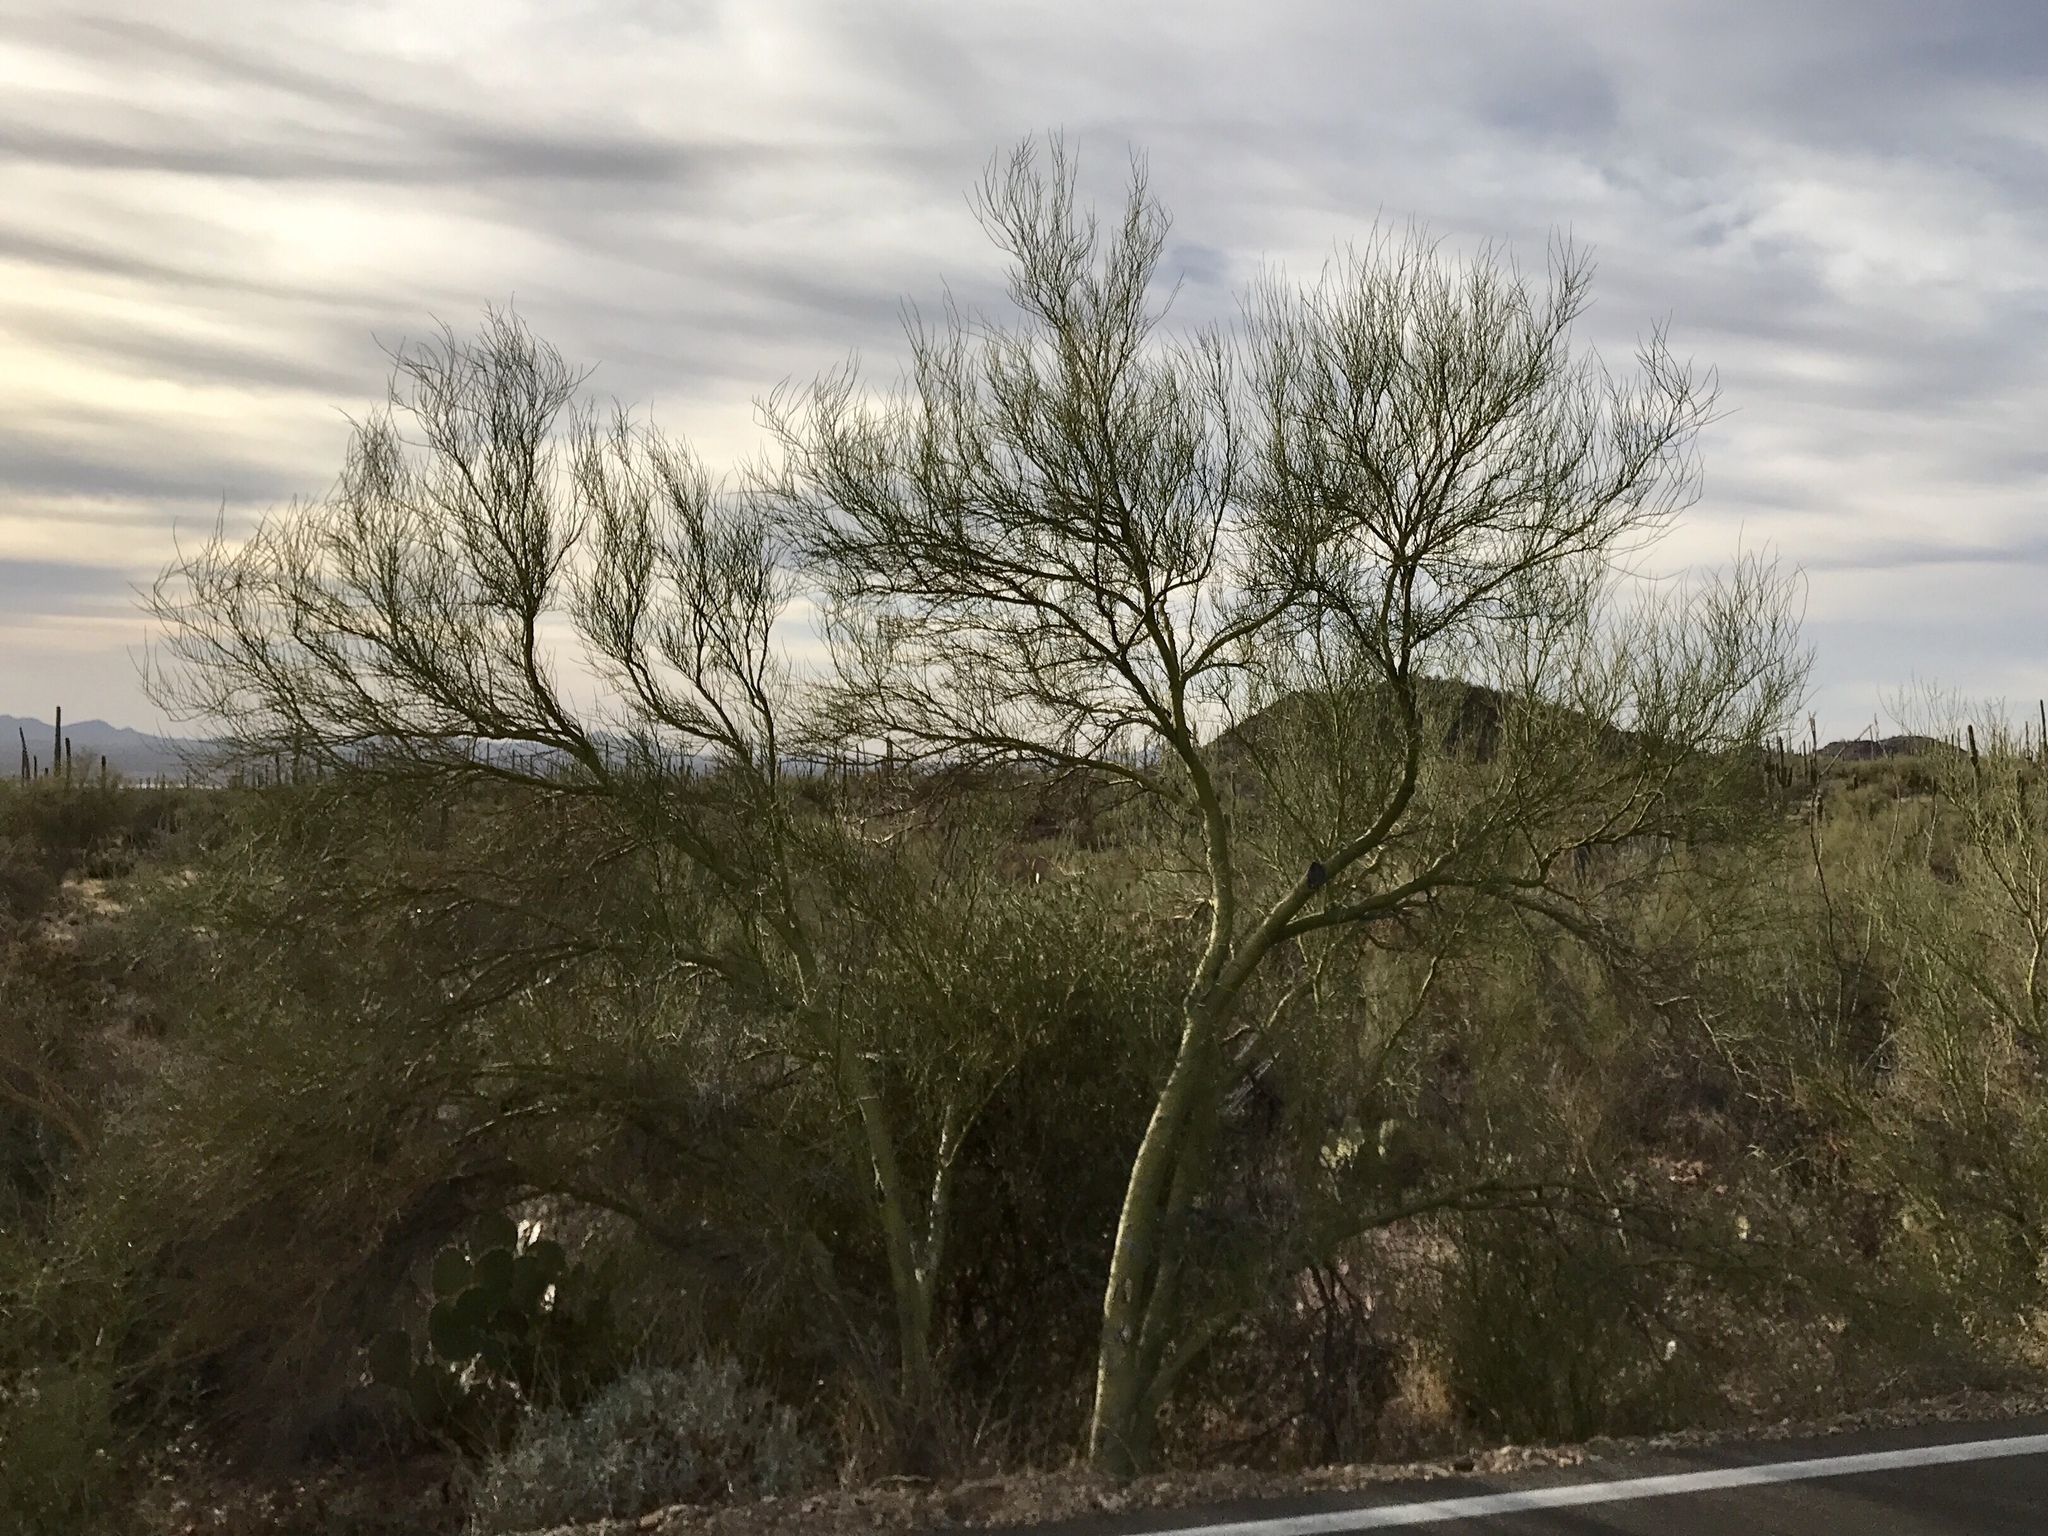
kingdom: Plantae
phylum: Tracheophyta
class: Magnoliopsida
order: Fabales
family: Fabaceae
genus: Parkinsonia
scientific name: Parkinsonia microphylla
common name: Yellow paloverde
